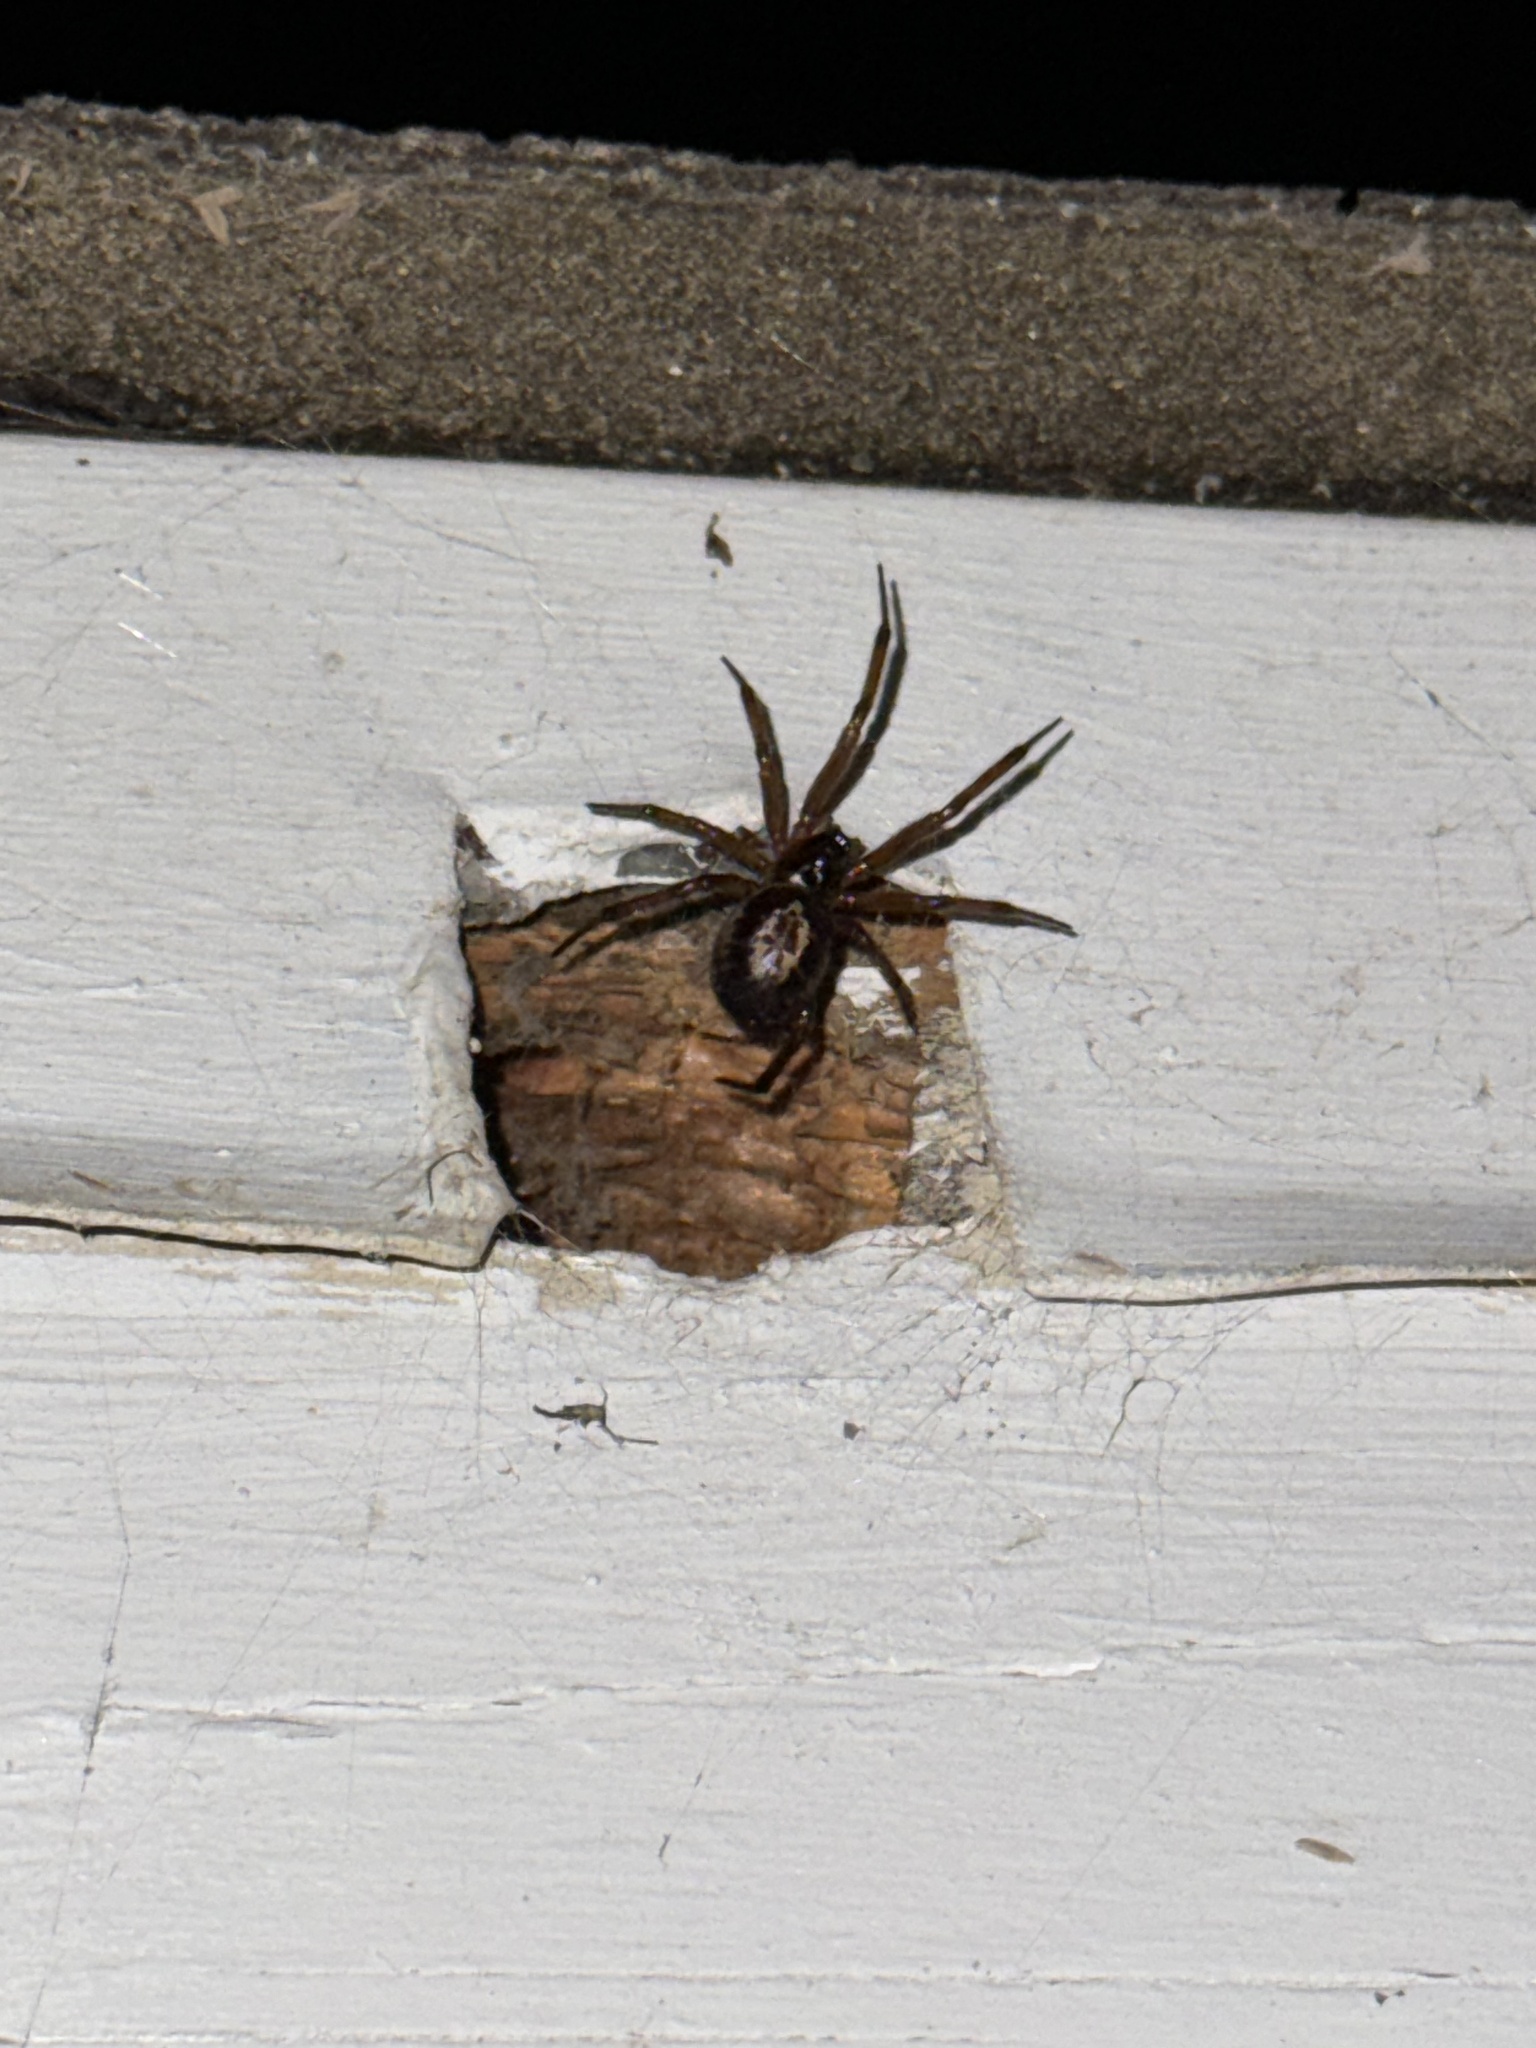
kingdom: Animalia
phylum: Arthropoda
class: Arachnida
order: Araneae
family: Theridiidae
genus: Steatoda
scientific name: Steatoda nobilis
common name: Cobweb weaver
